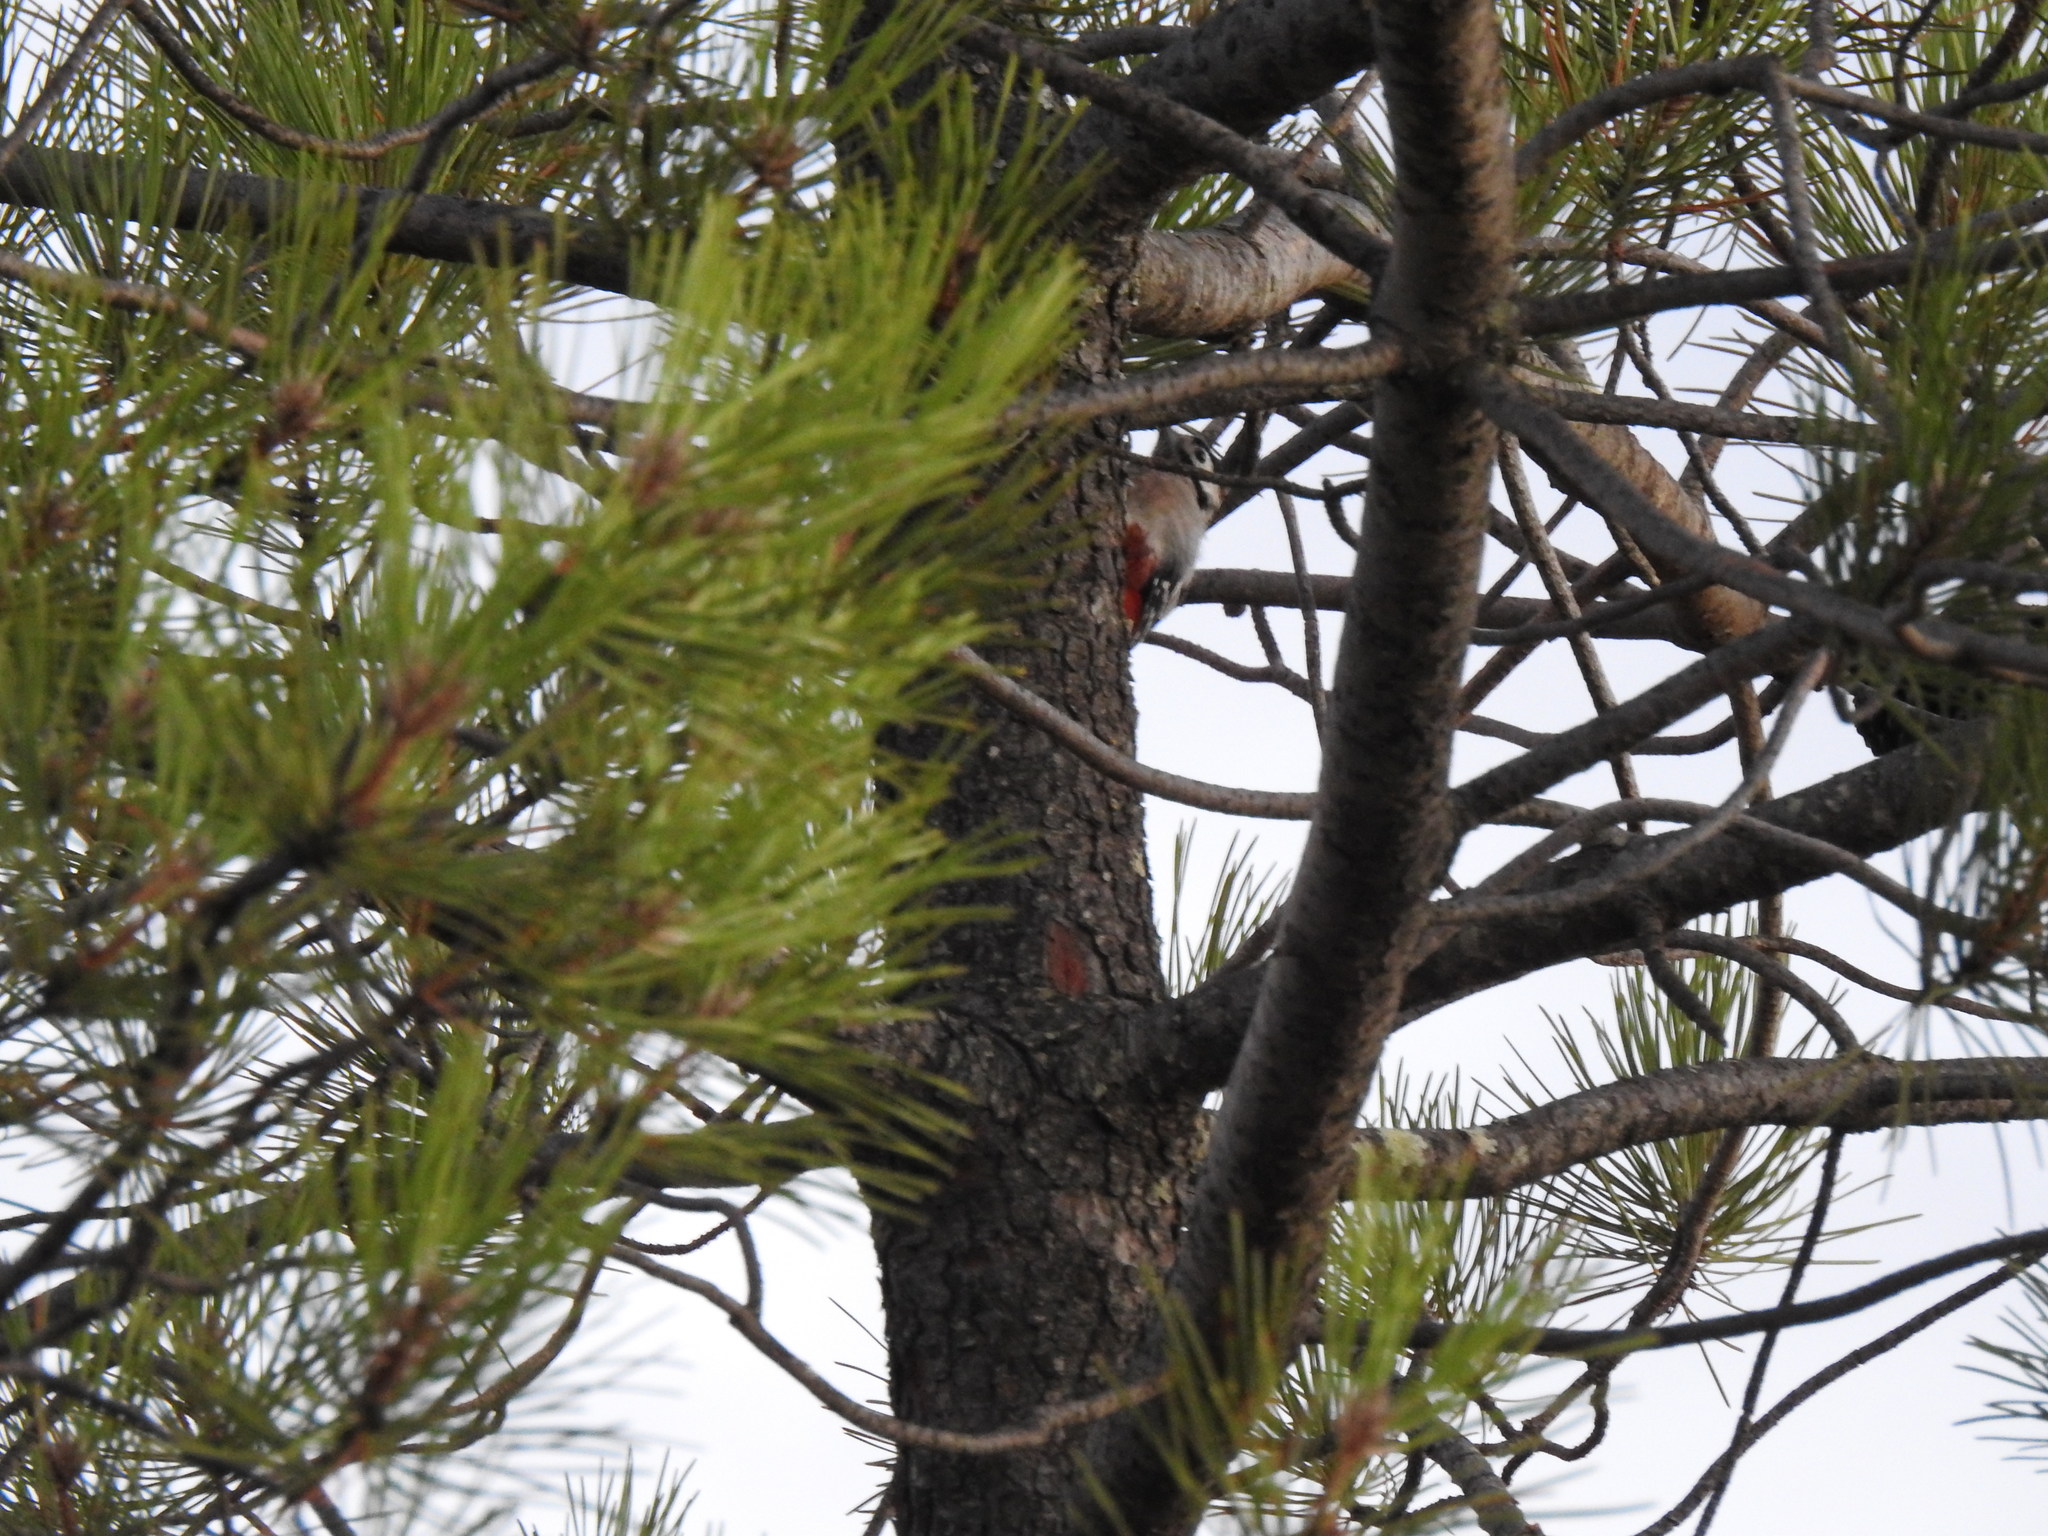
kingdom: Animalia
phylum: Chordata
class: Aves
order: Piciformes
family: Picidae
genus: Dendrocopos
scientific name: Dendrocopos major
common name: Great spotted woodpecker
